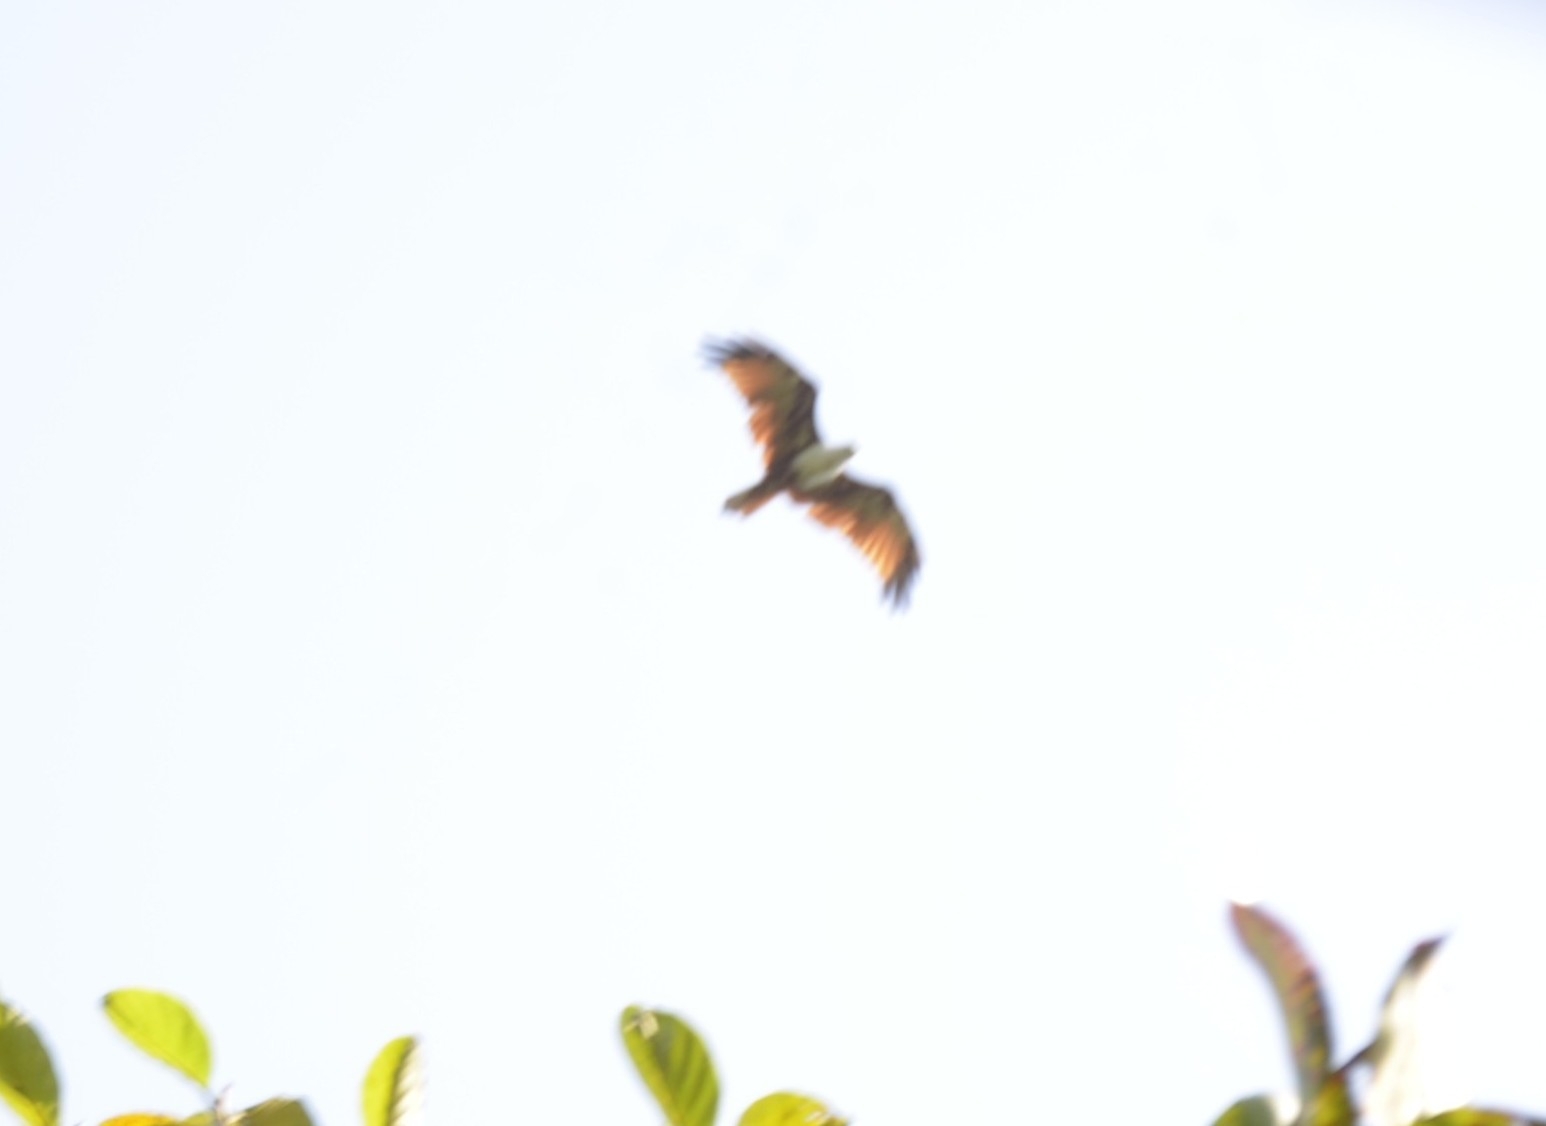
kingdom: Animalia
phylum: Chordata
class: Aves
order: Accipitriformes
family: Accipitridae
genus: Haliastur
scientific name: Haliastur indus
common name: Brahminy kite
